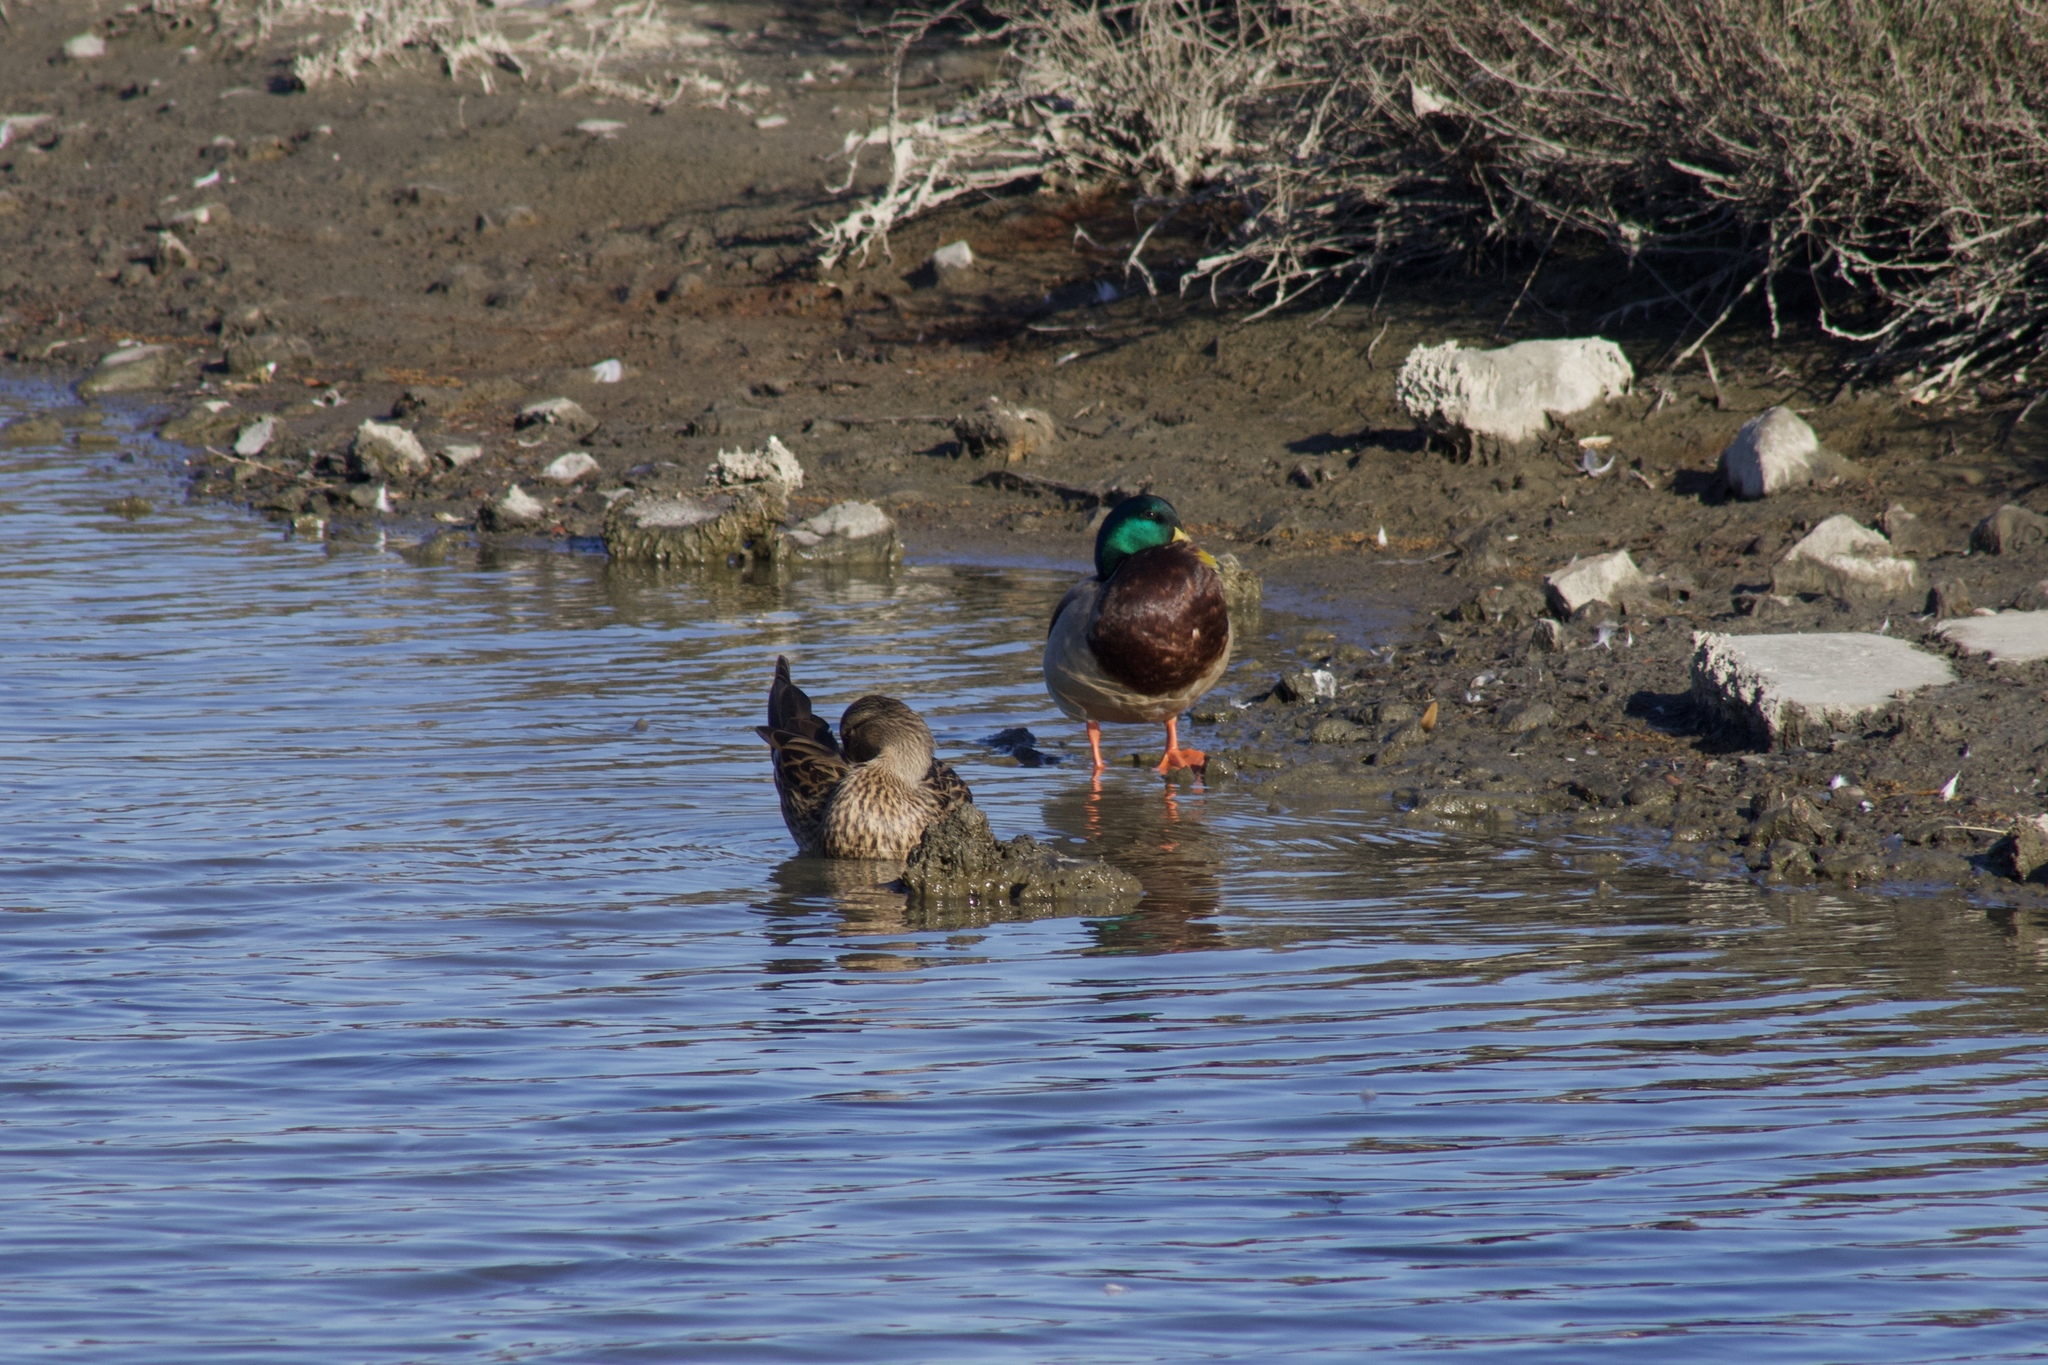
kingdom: Animalia
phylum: Chordata
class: Aves
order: Anseriformes
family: Anatidae
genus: Anas
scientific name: Anas platyrhynchos
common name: Mallard
